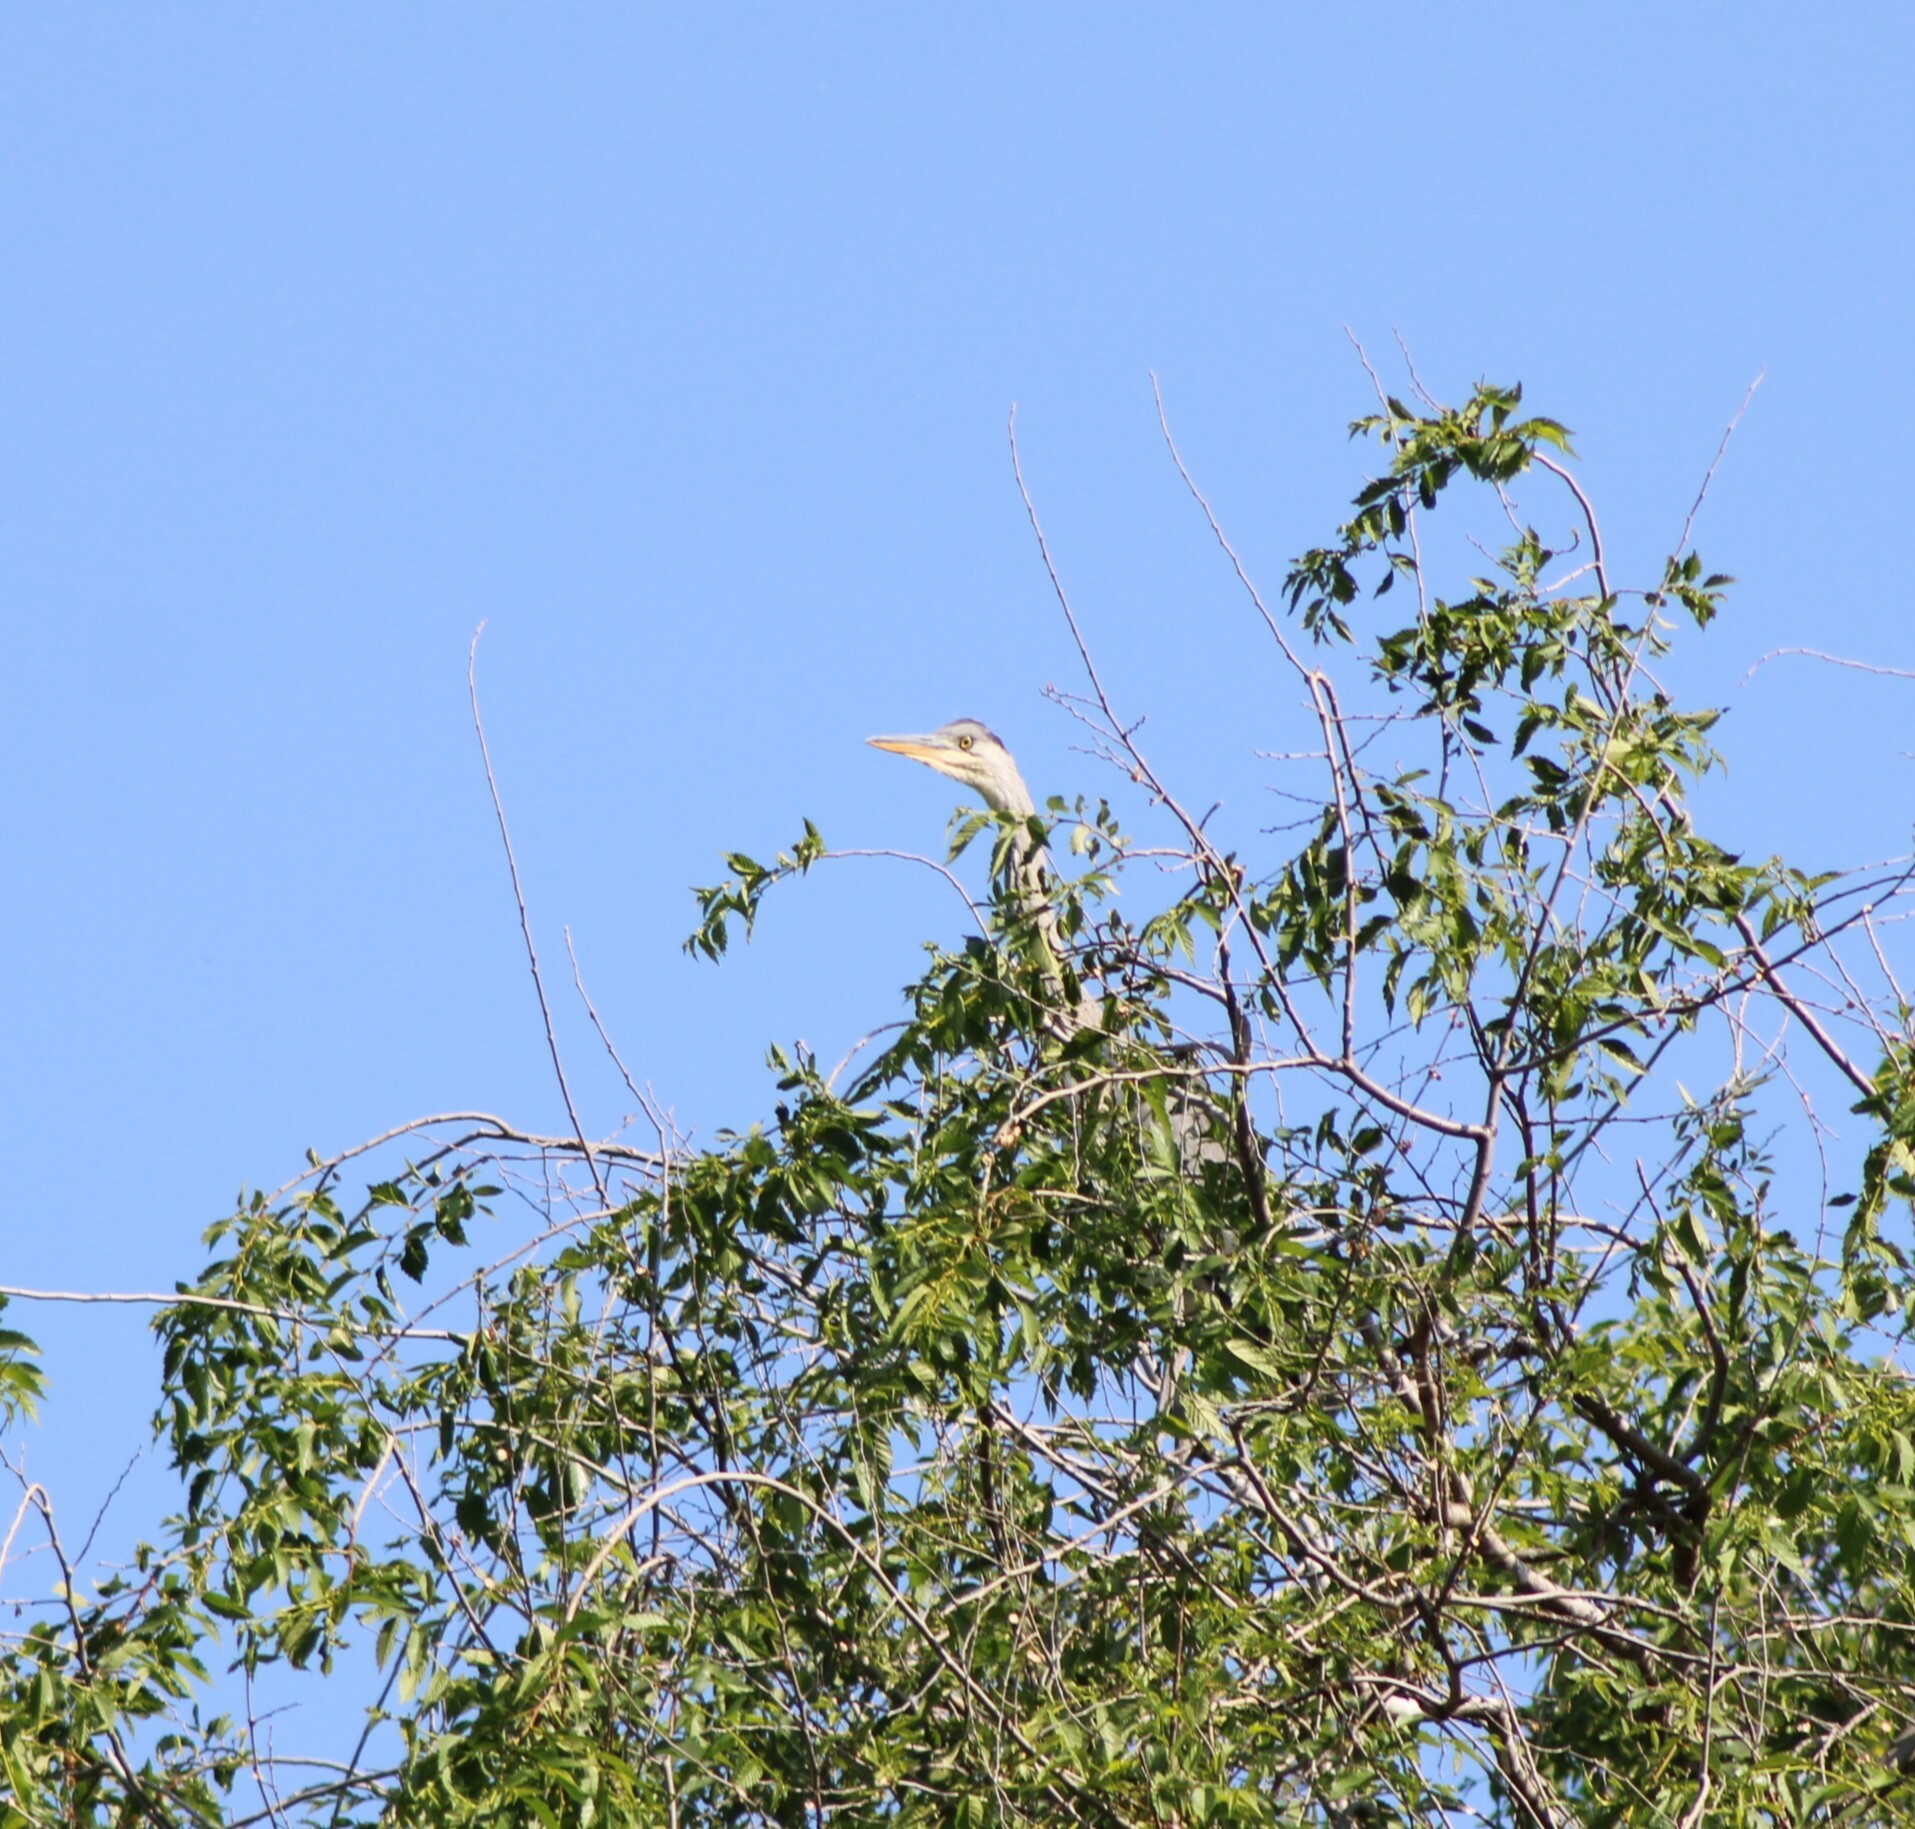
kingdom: Animalia
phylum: Chordata
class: Aves
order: Pelecaniformes
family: Ardeidae
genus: Ardea
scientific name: Ardea cinerea
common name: Grey heron
